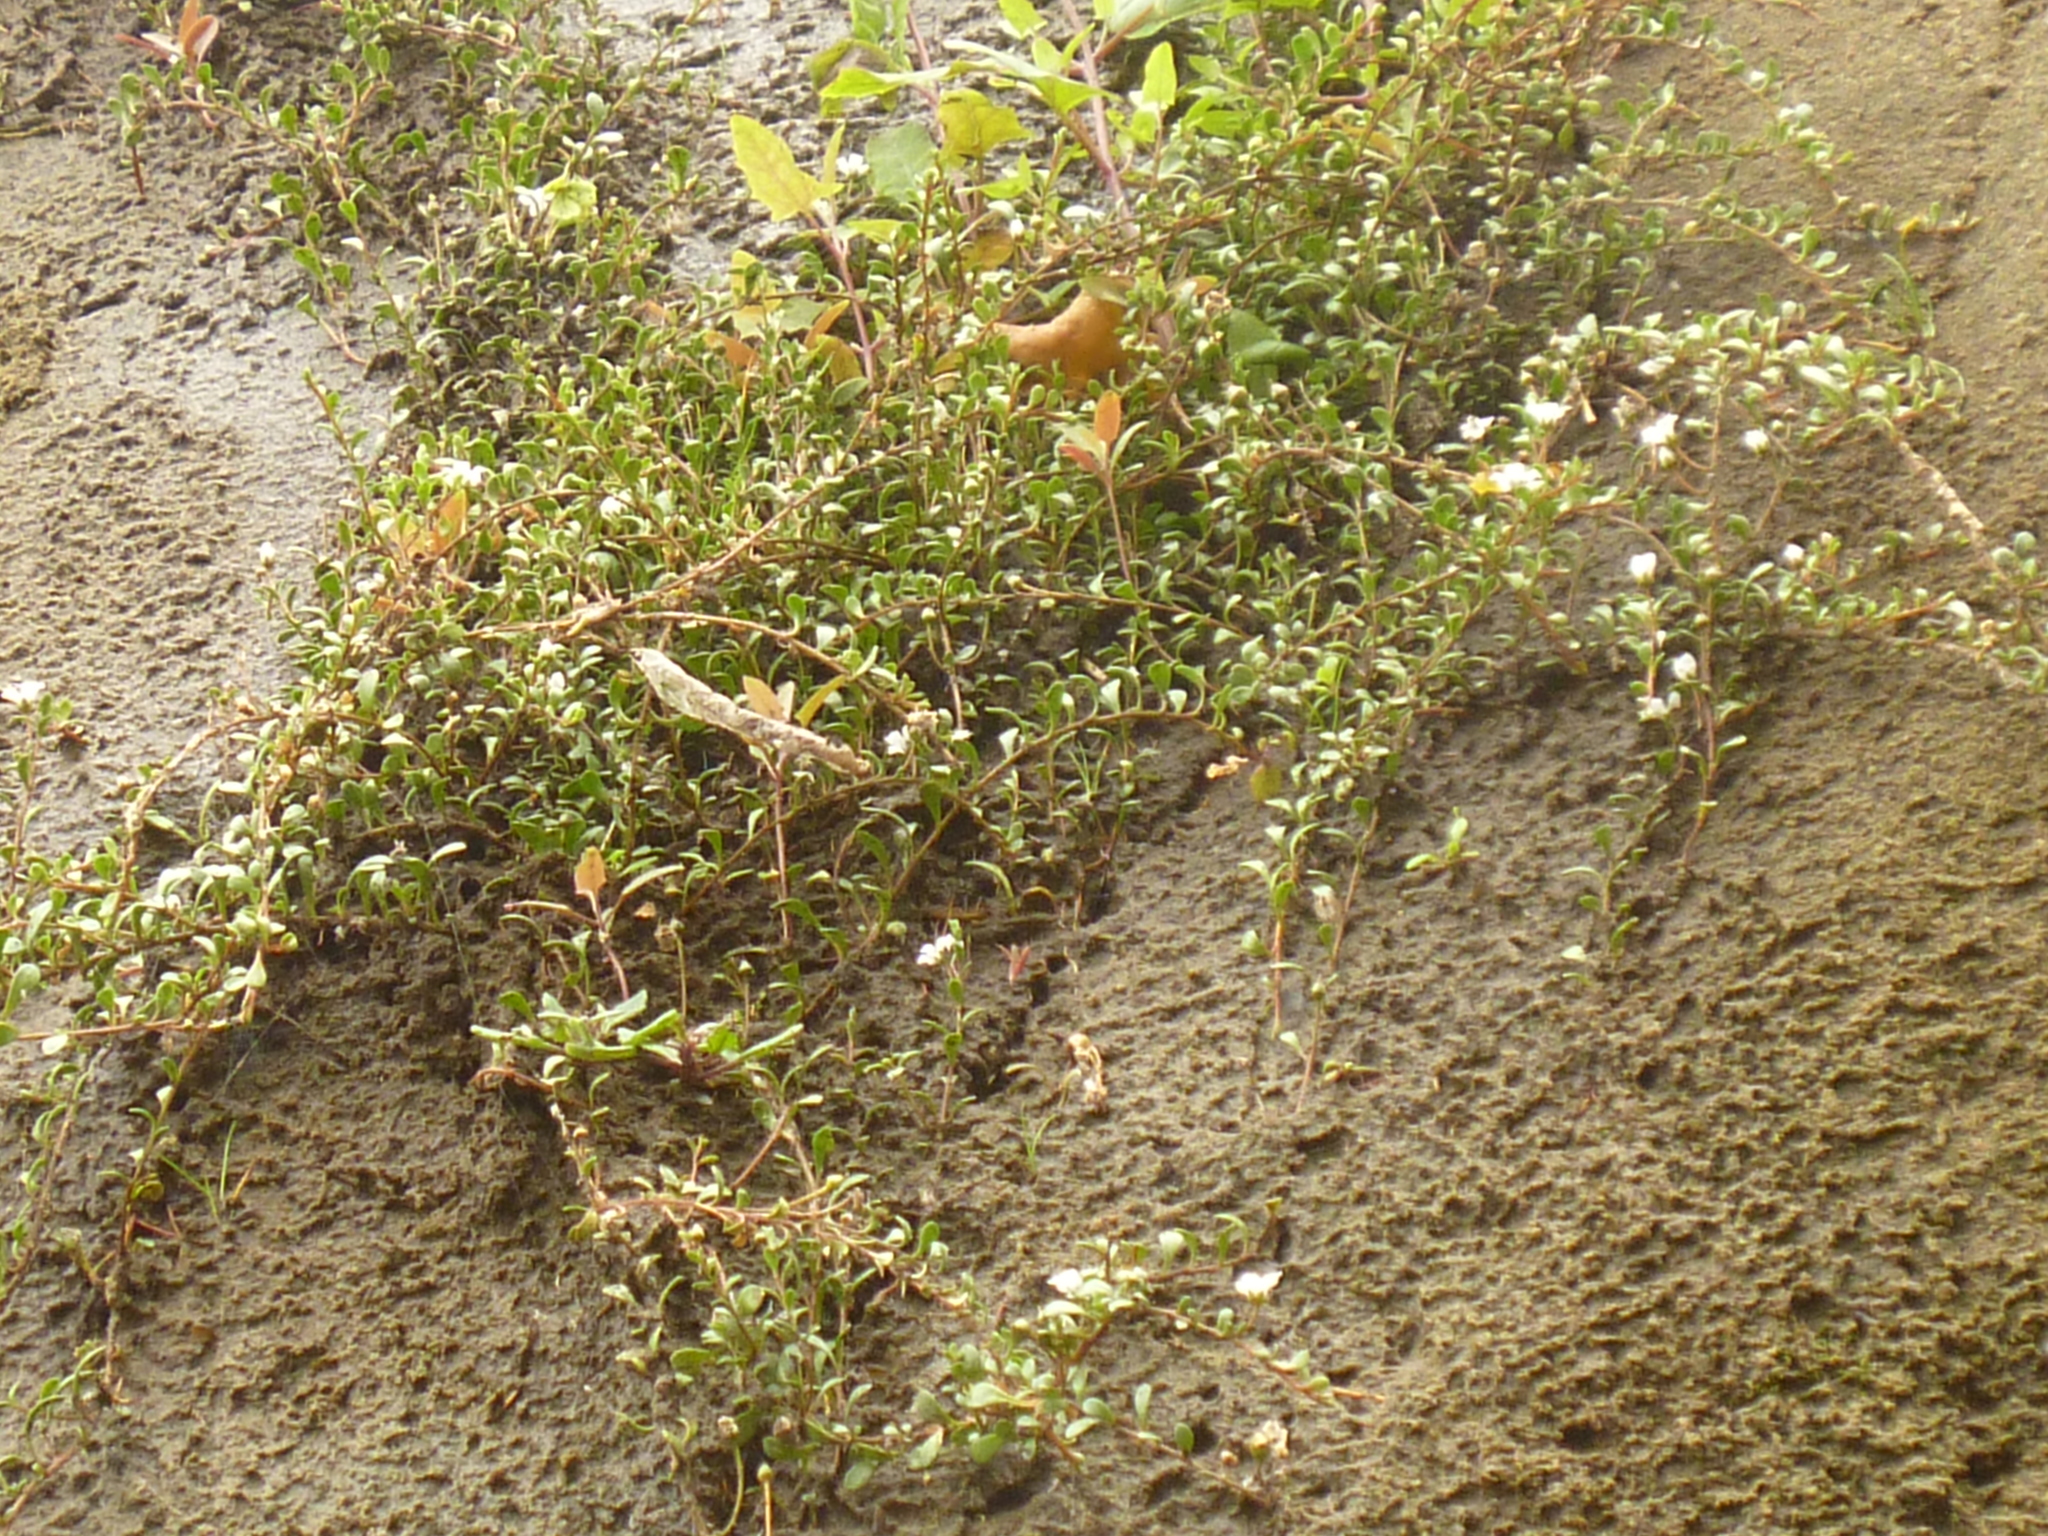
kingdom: Plantae
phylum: Tracheophyta
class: Magnoliopsida
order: Ericales
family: Primulaceae
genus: Samolus
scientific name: Samolus repens
